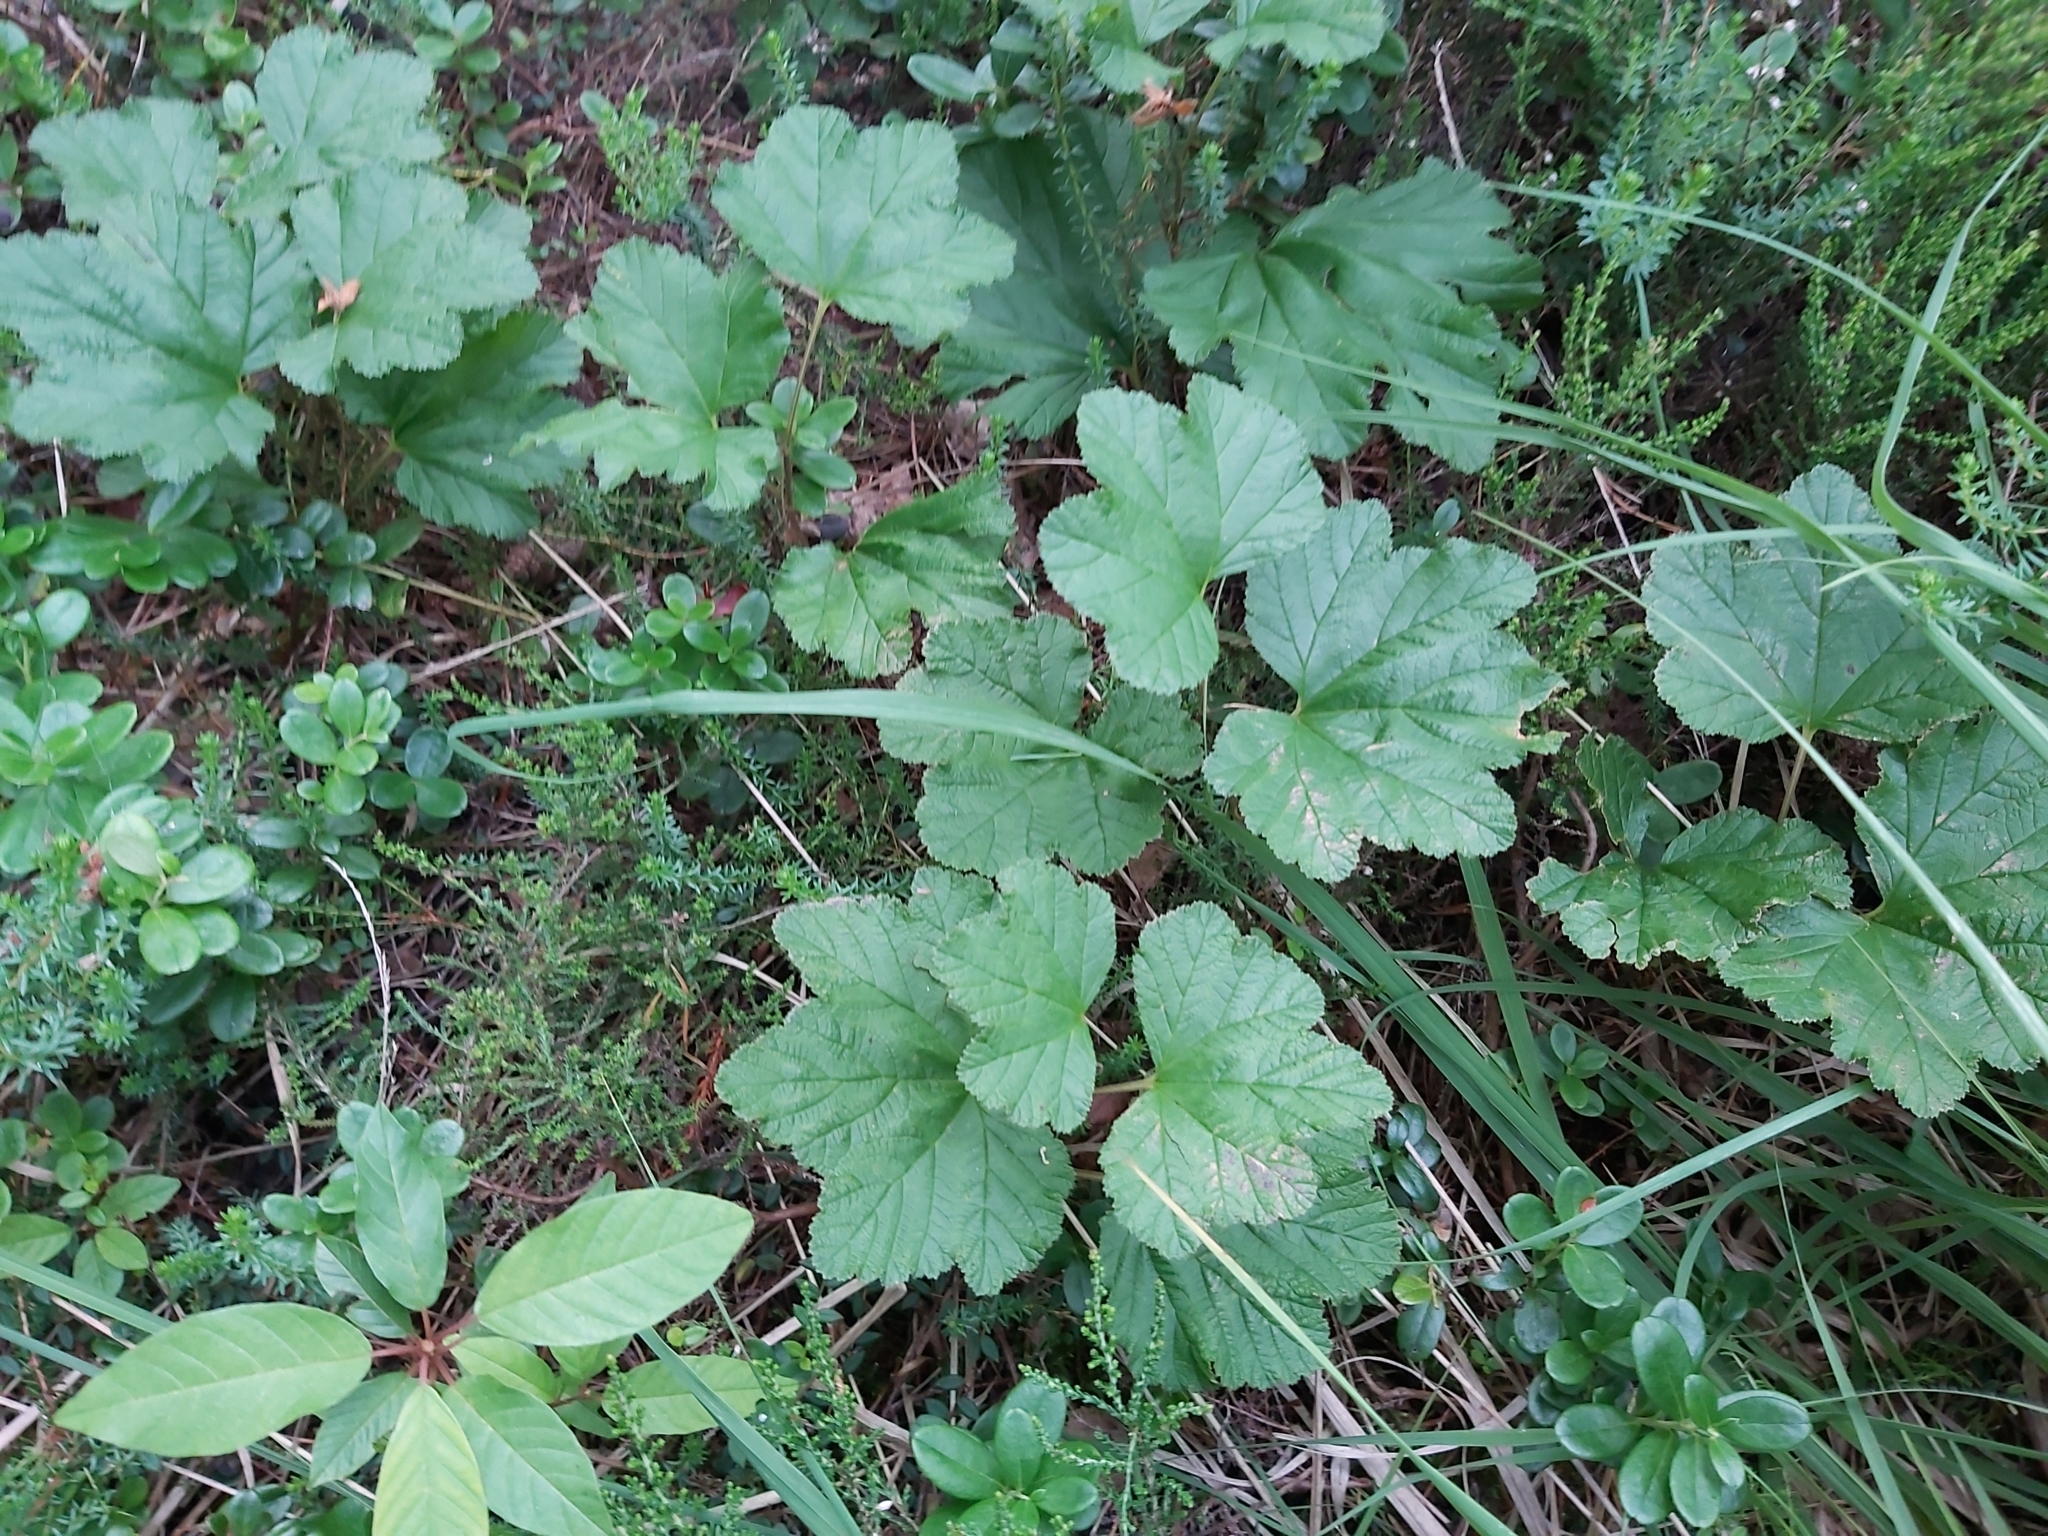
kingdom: Plantae
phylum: Tracheophyta
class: Magnoliopsida
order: Rosales
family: Rosaceae
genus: Rubus
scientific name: Rubus chamaemorus
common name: Cloudberry
